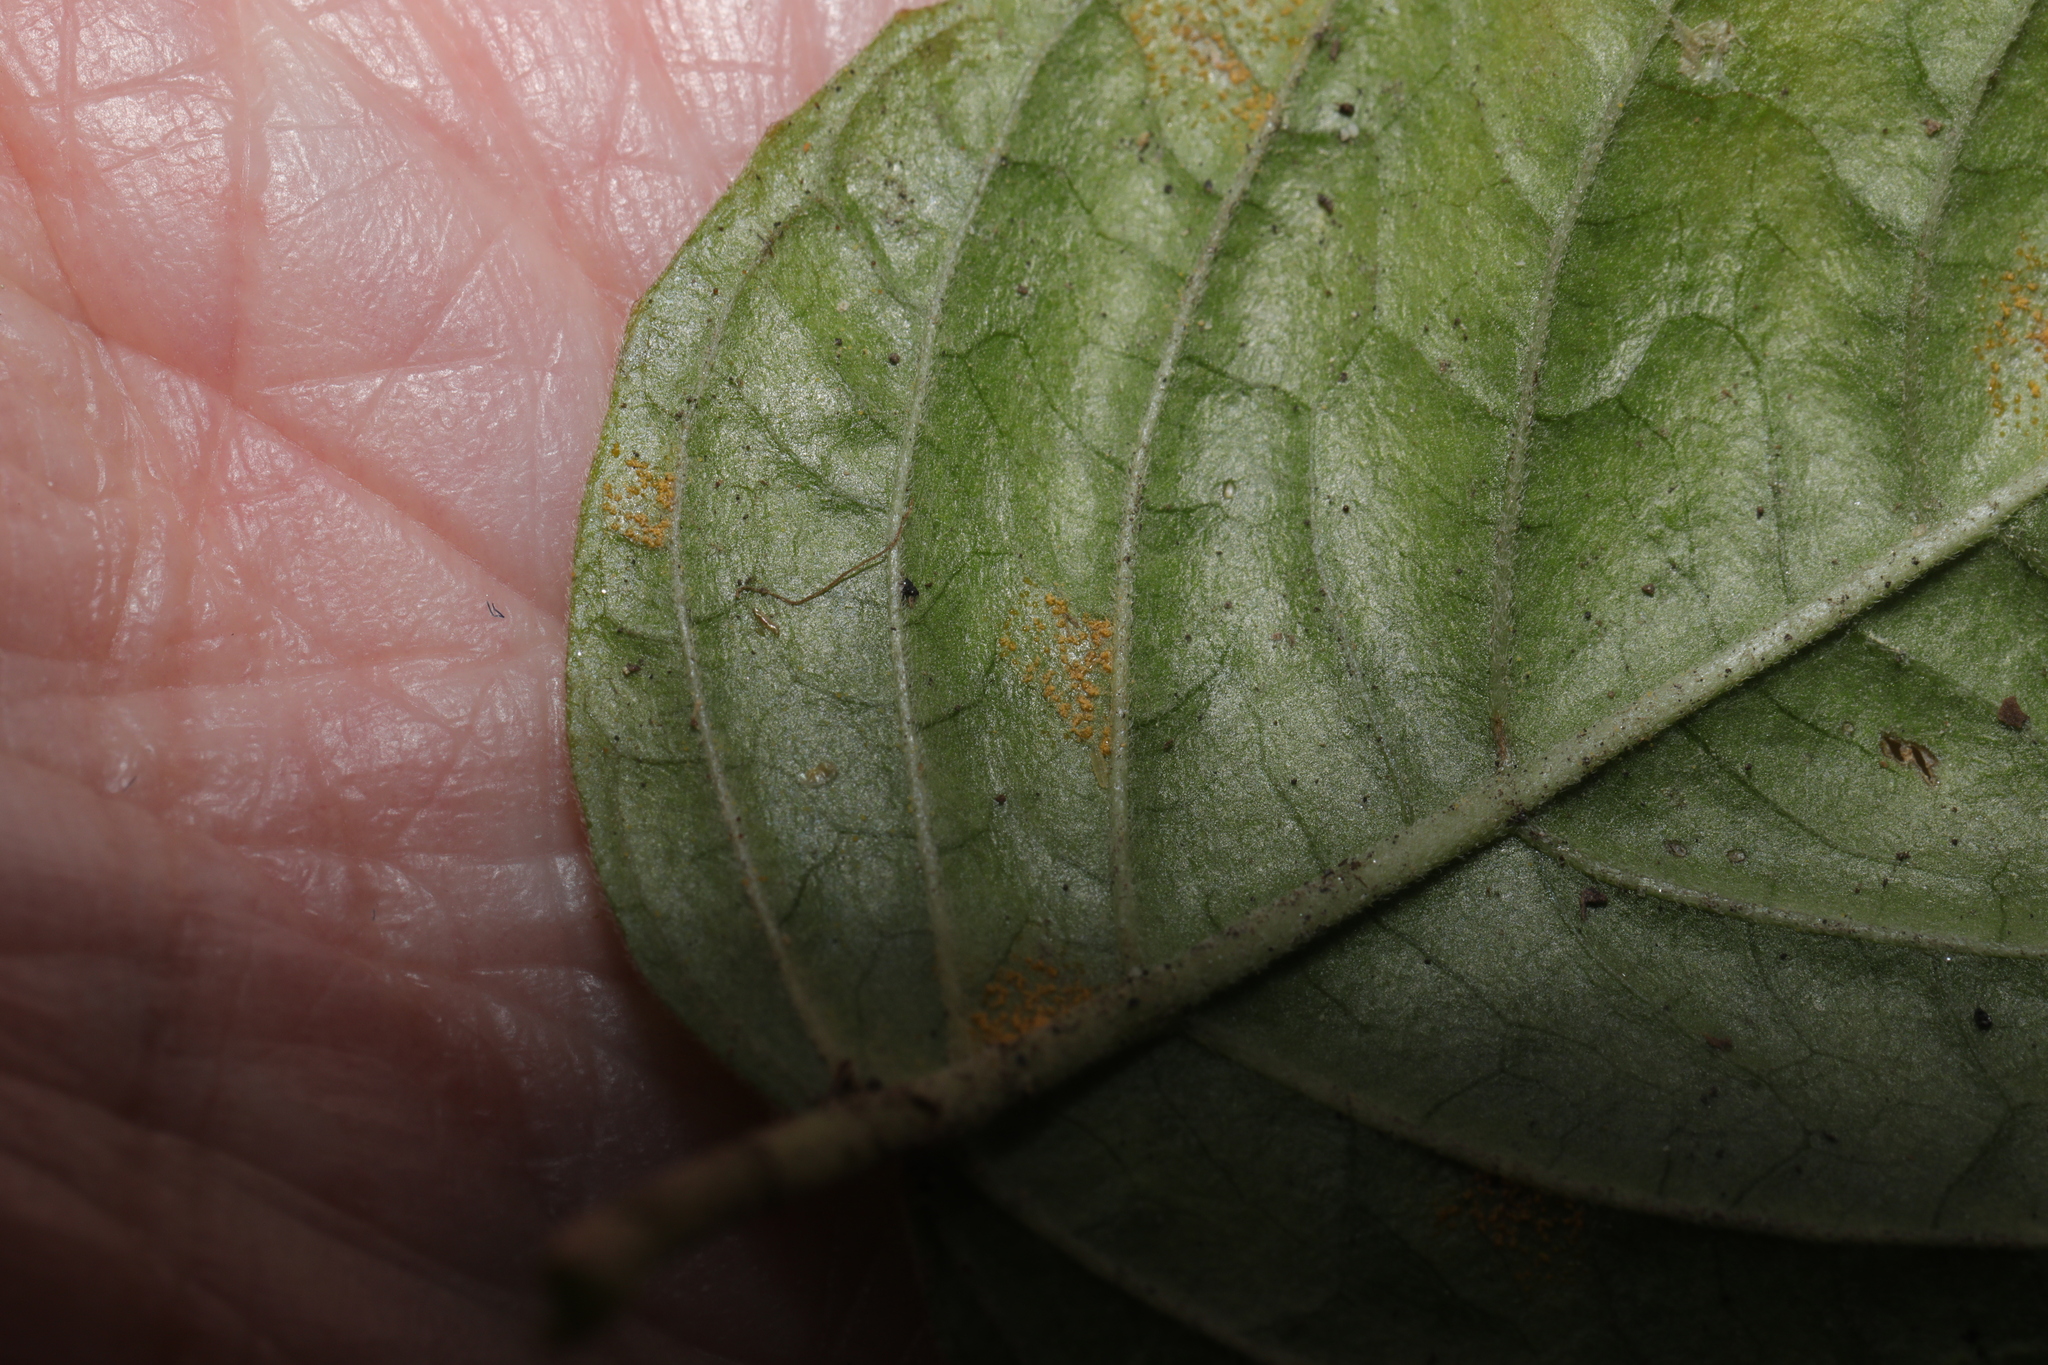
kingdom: Fungi
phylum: Basidiomycota
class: Pucciniomycetes
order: Pucciniales
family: Pucciniastraceae
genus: Pucciniastrum
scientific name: Pucciniastrum circaeae
